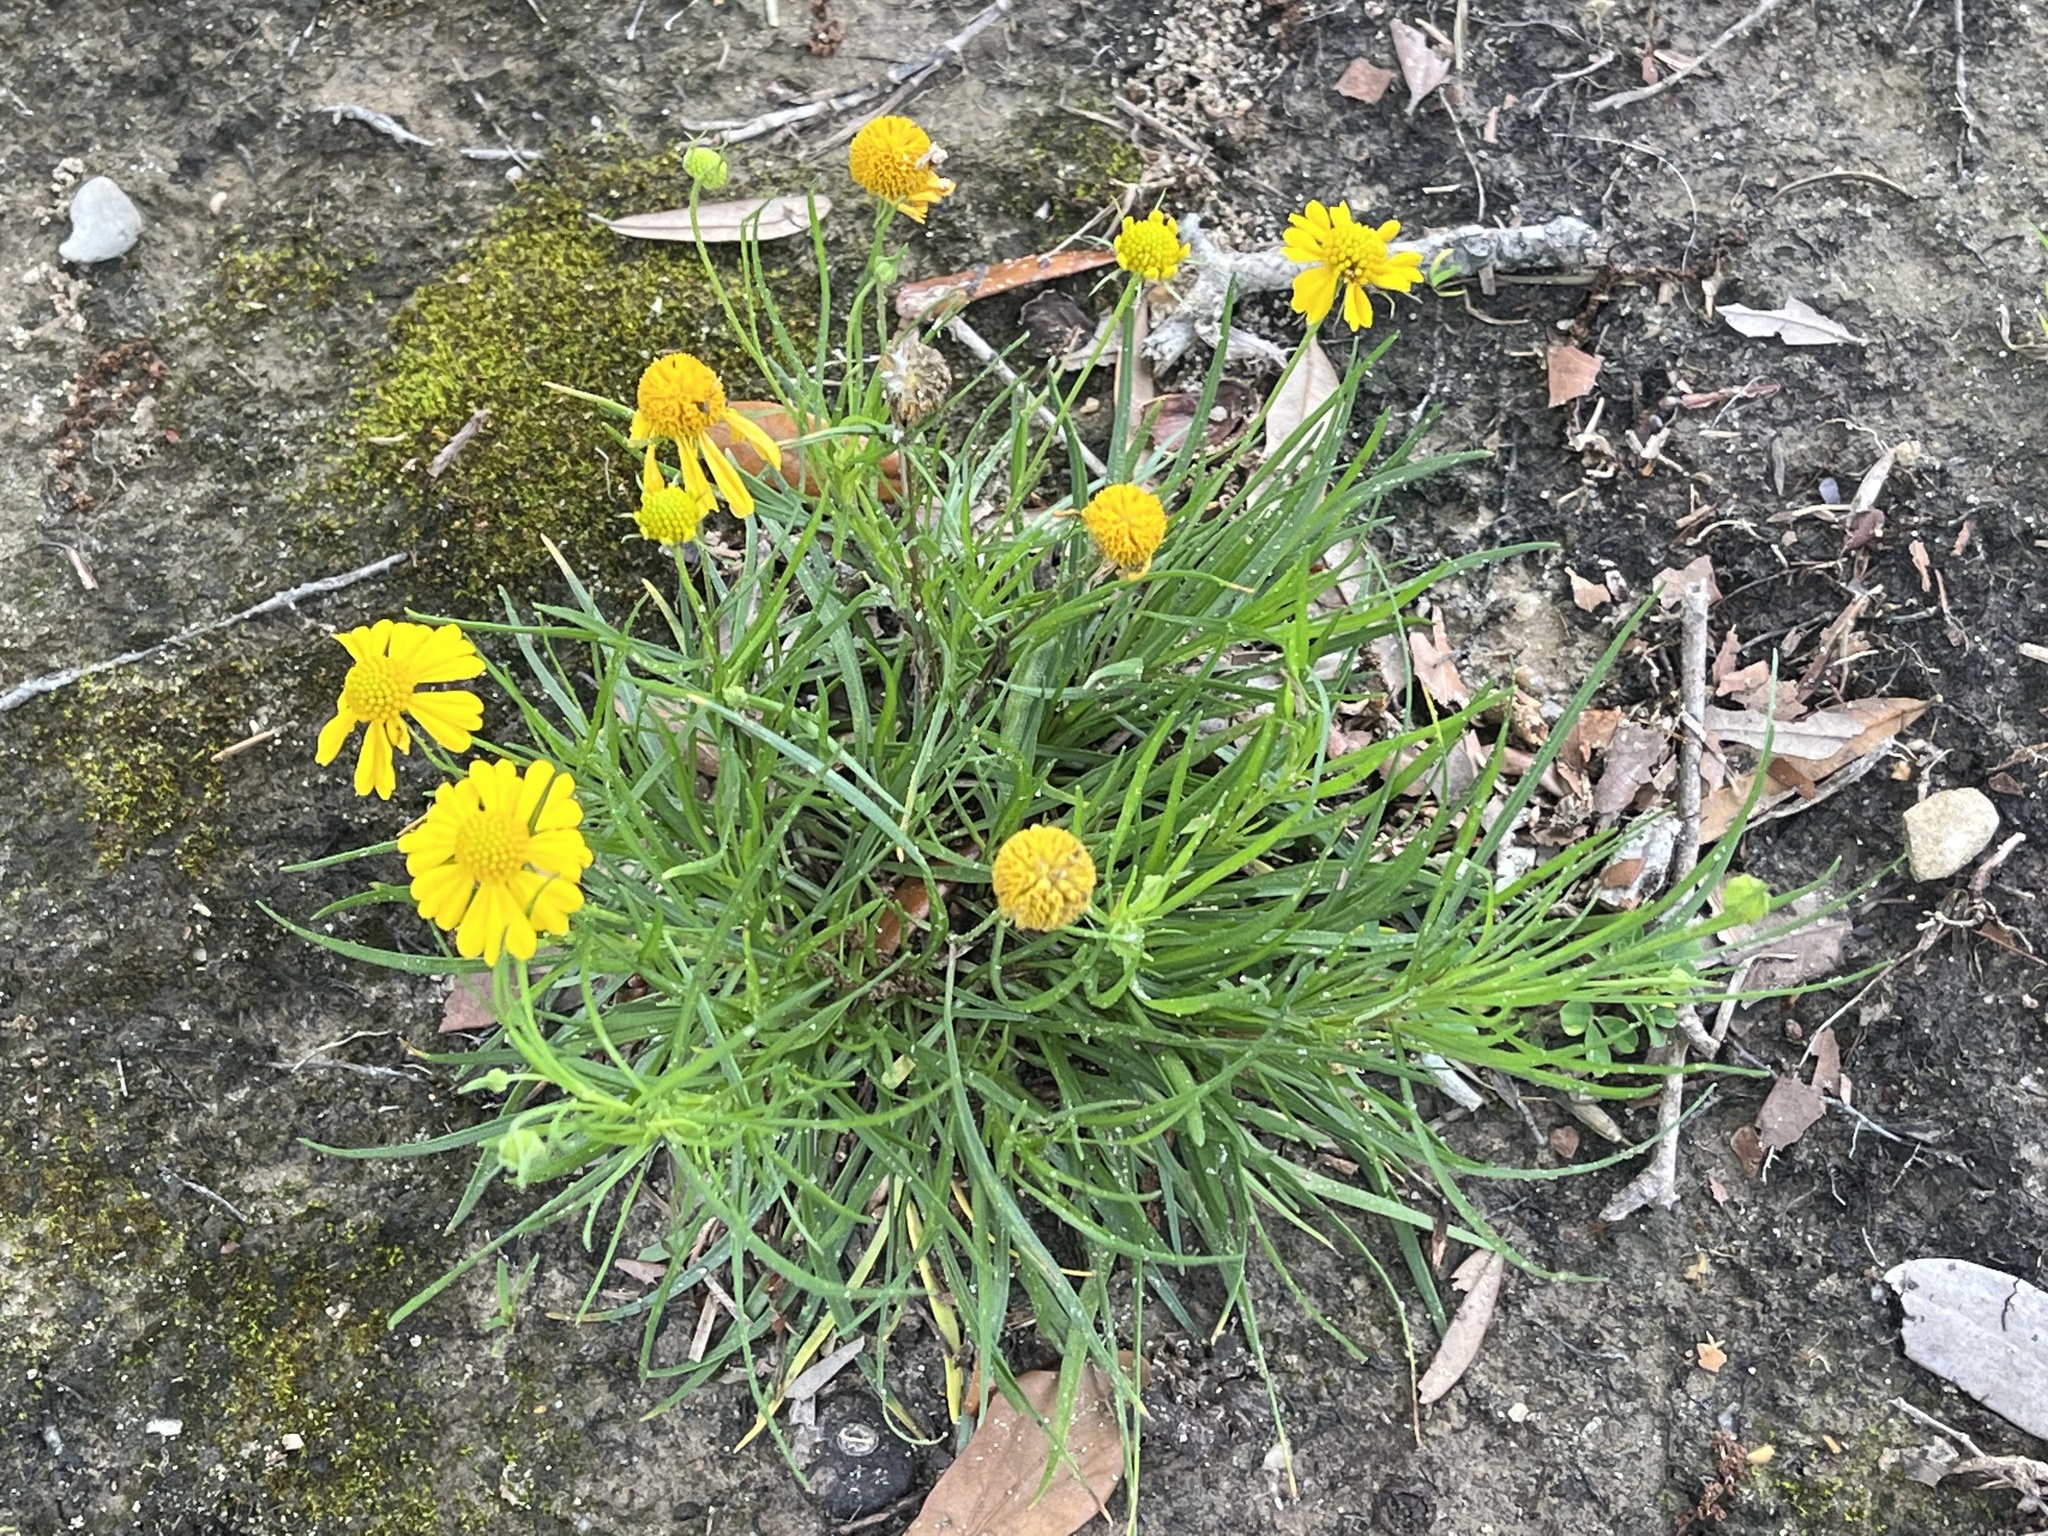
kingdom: Plantae
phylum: Tracheophyta
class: Magnoliopsida
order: Asterales
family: Asteraceae
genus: Helenium
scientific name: Helenium amarum
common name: Bitter sneezeweed
